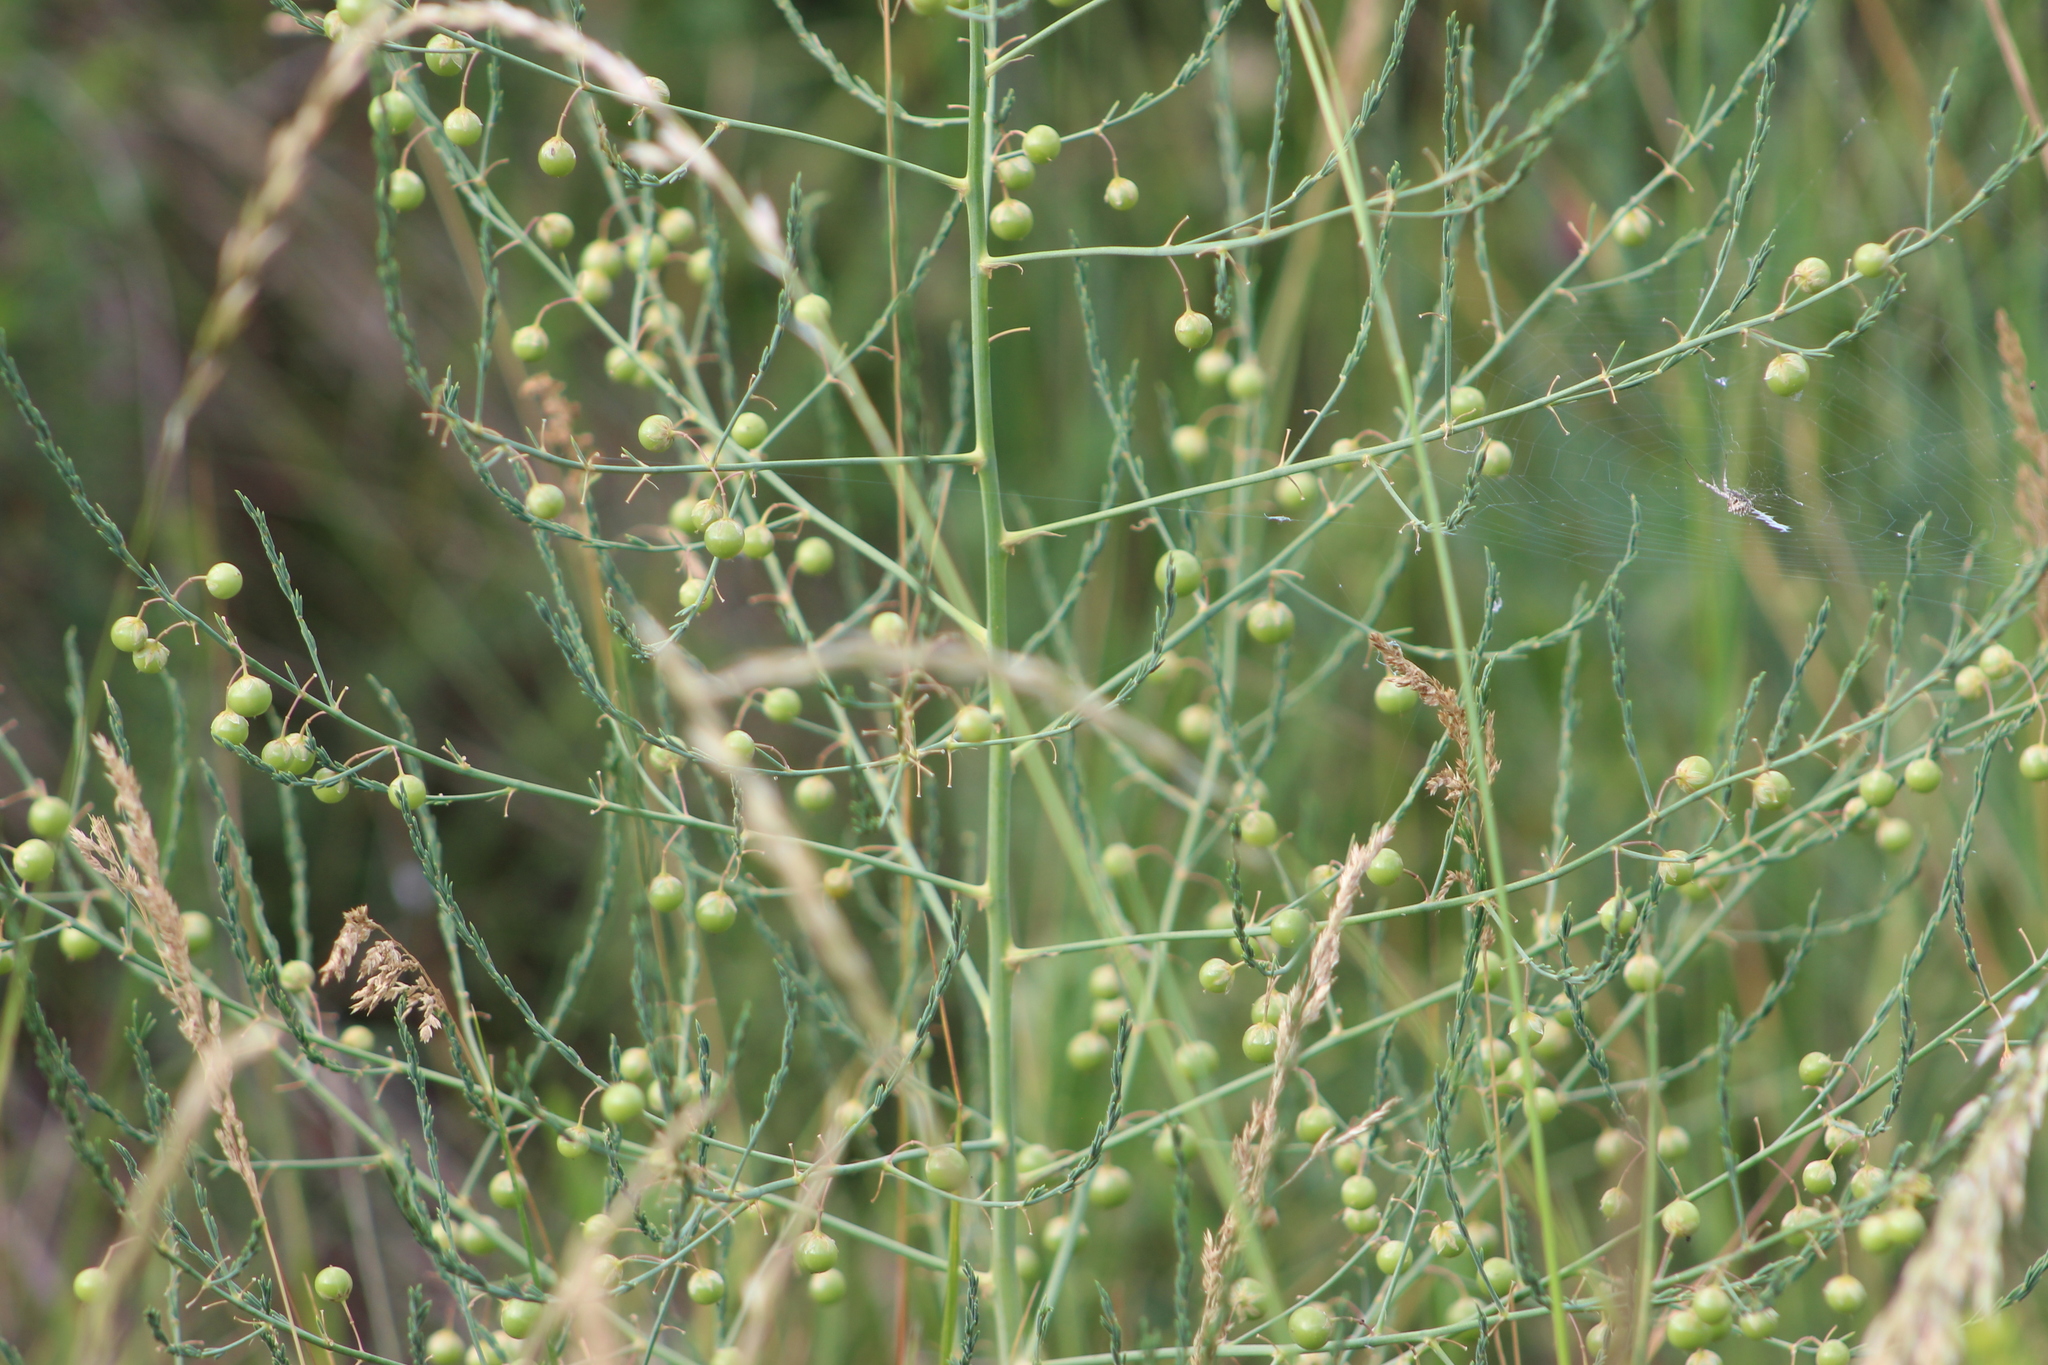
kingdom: Plantae
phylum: Tracheophyta
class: Liliopsida
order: Asparagales
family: Asparagaceae
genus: Asparagus
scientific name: Asparagus officinalis
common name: Garden asparagus
